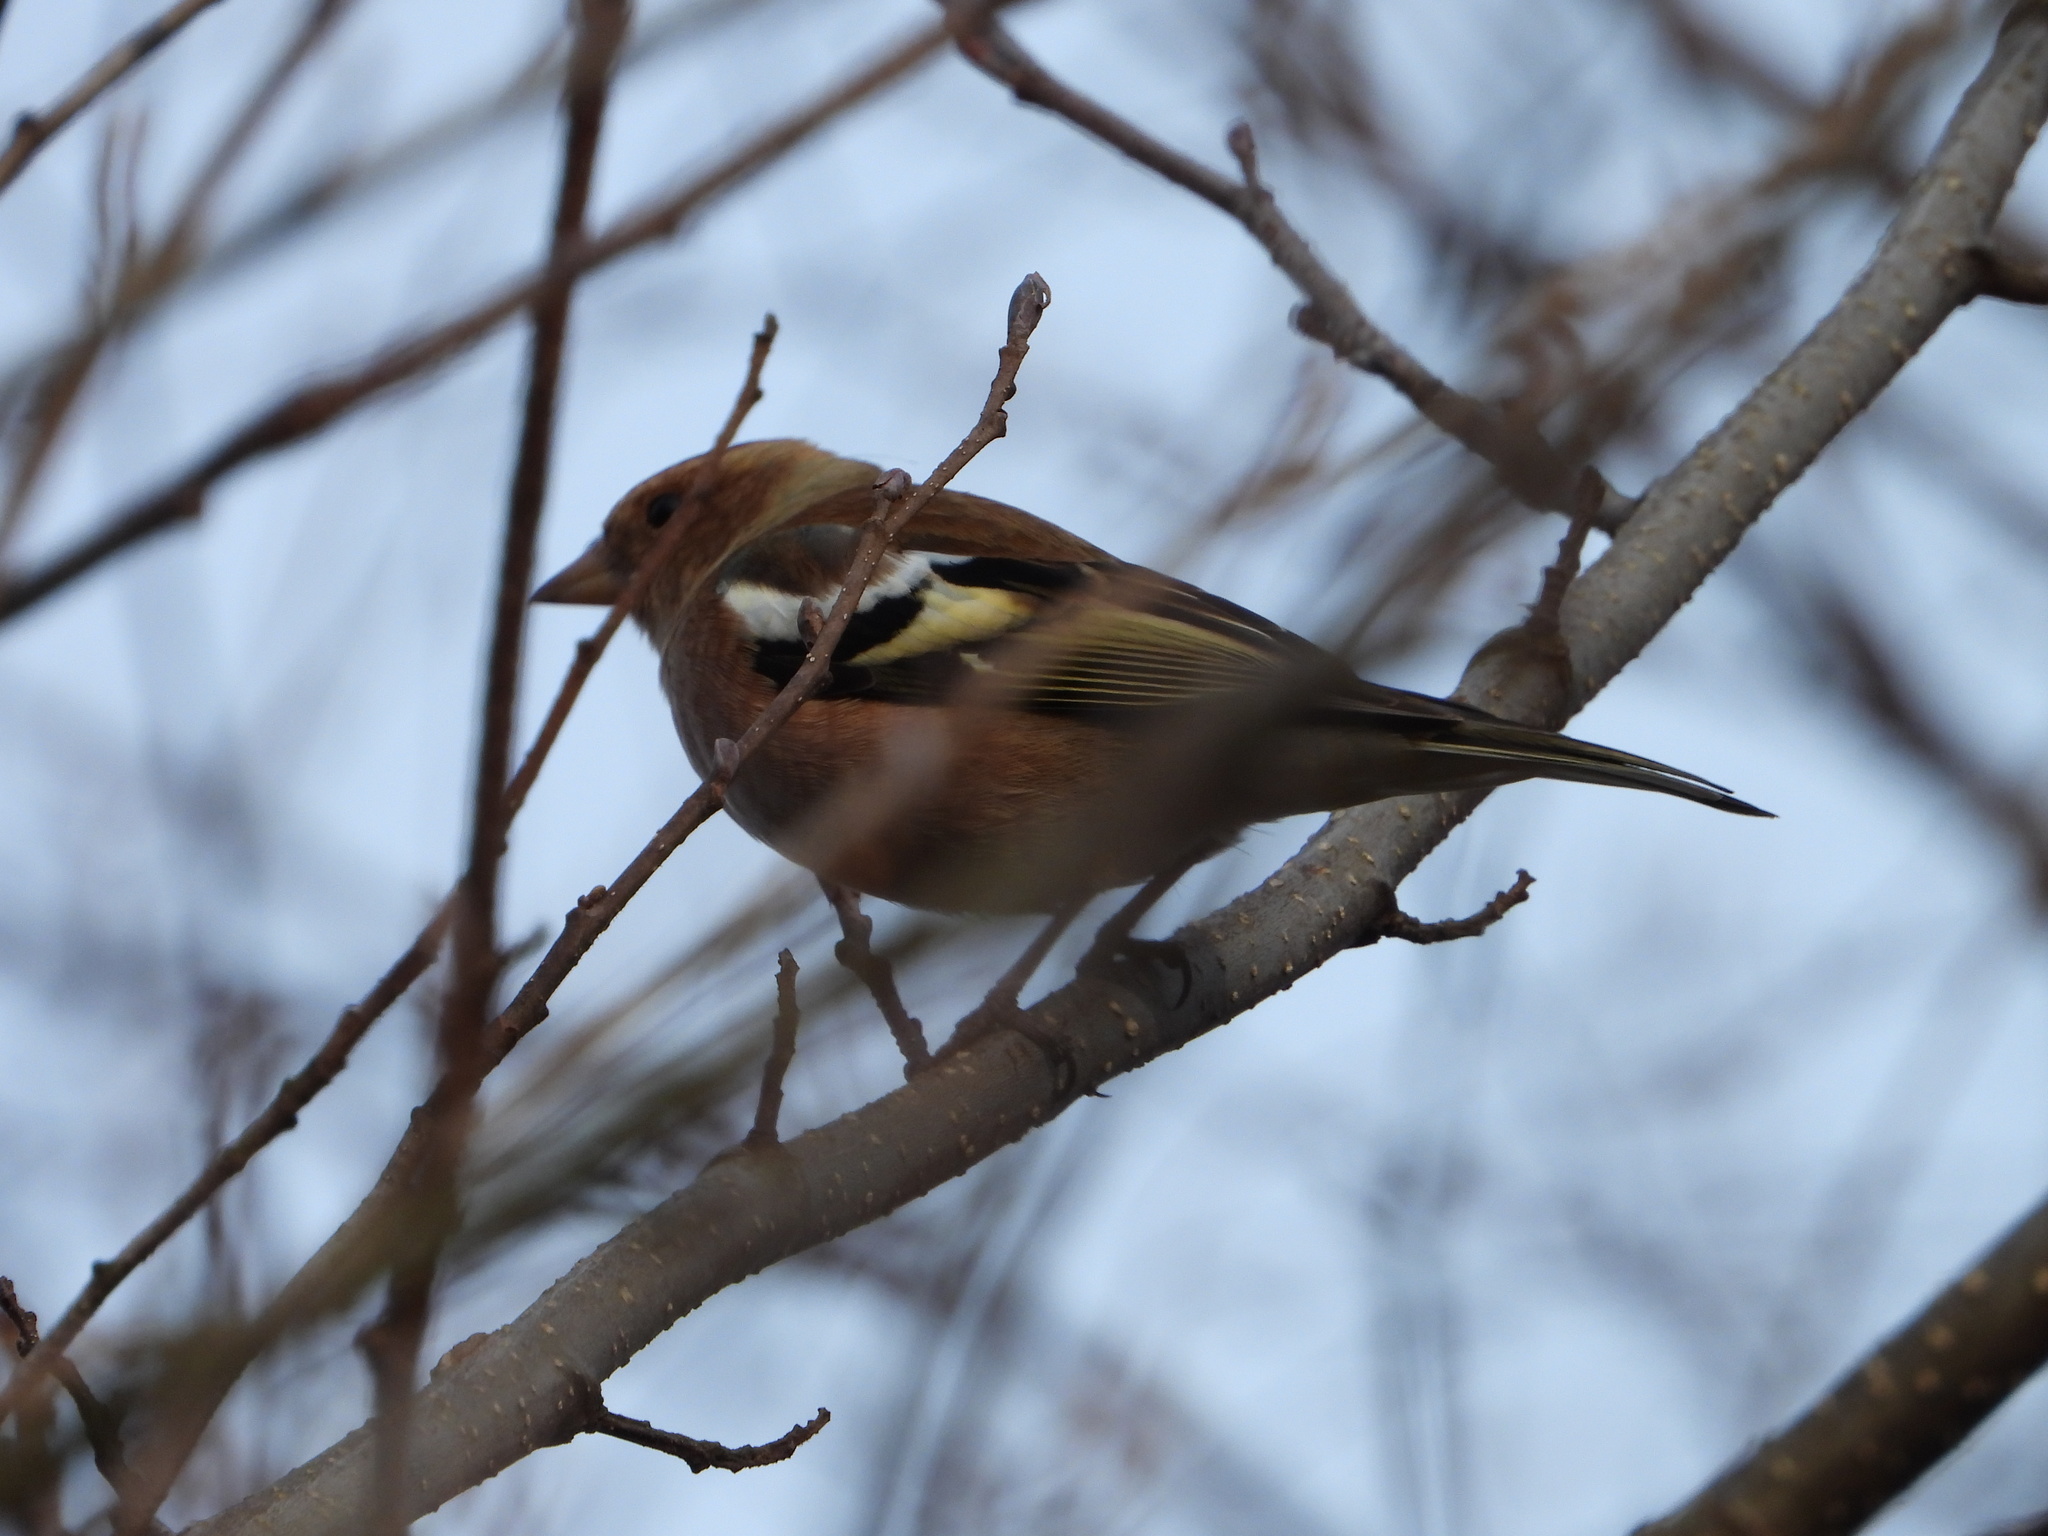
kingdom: Animalia
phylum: Chordata
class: Aves
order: Passeriformes
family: Fringillidae
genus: Fringilla
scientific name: Fringilla coelebs
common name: Common chaffinch
